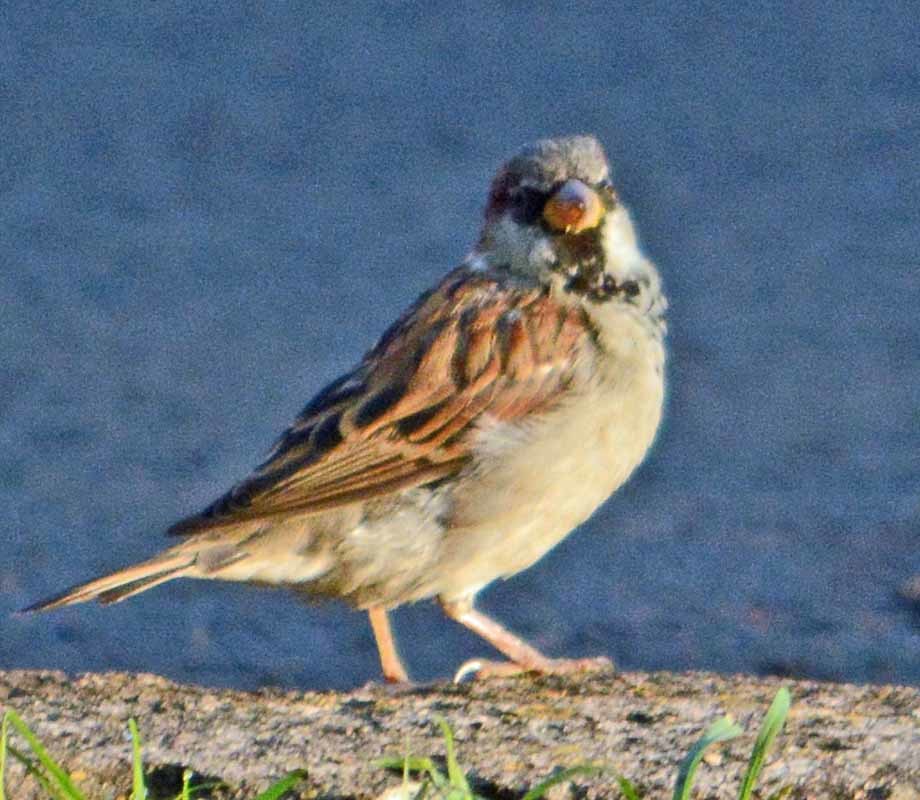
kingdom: Animalia
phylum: Chordata
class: Aves
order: Passeriformes
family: Passeridae
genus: Passer
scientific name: Passer domesticus
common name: House sparrow
